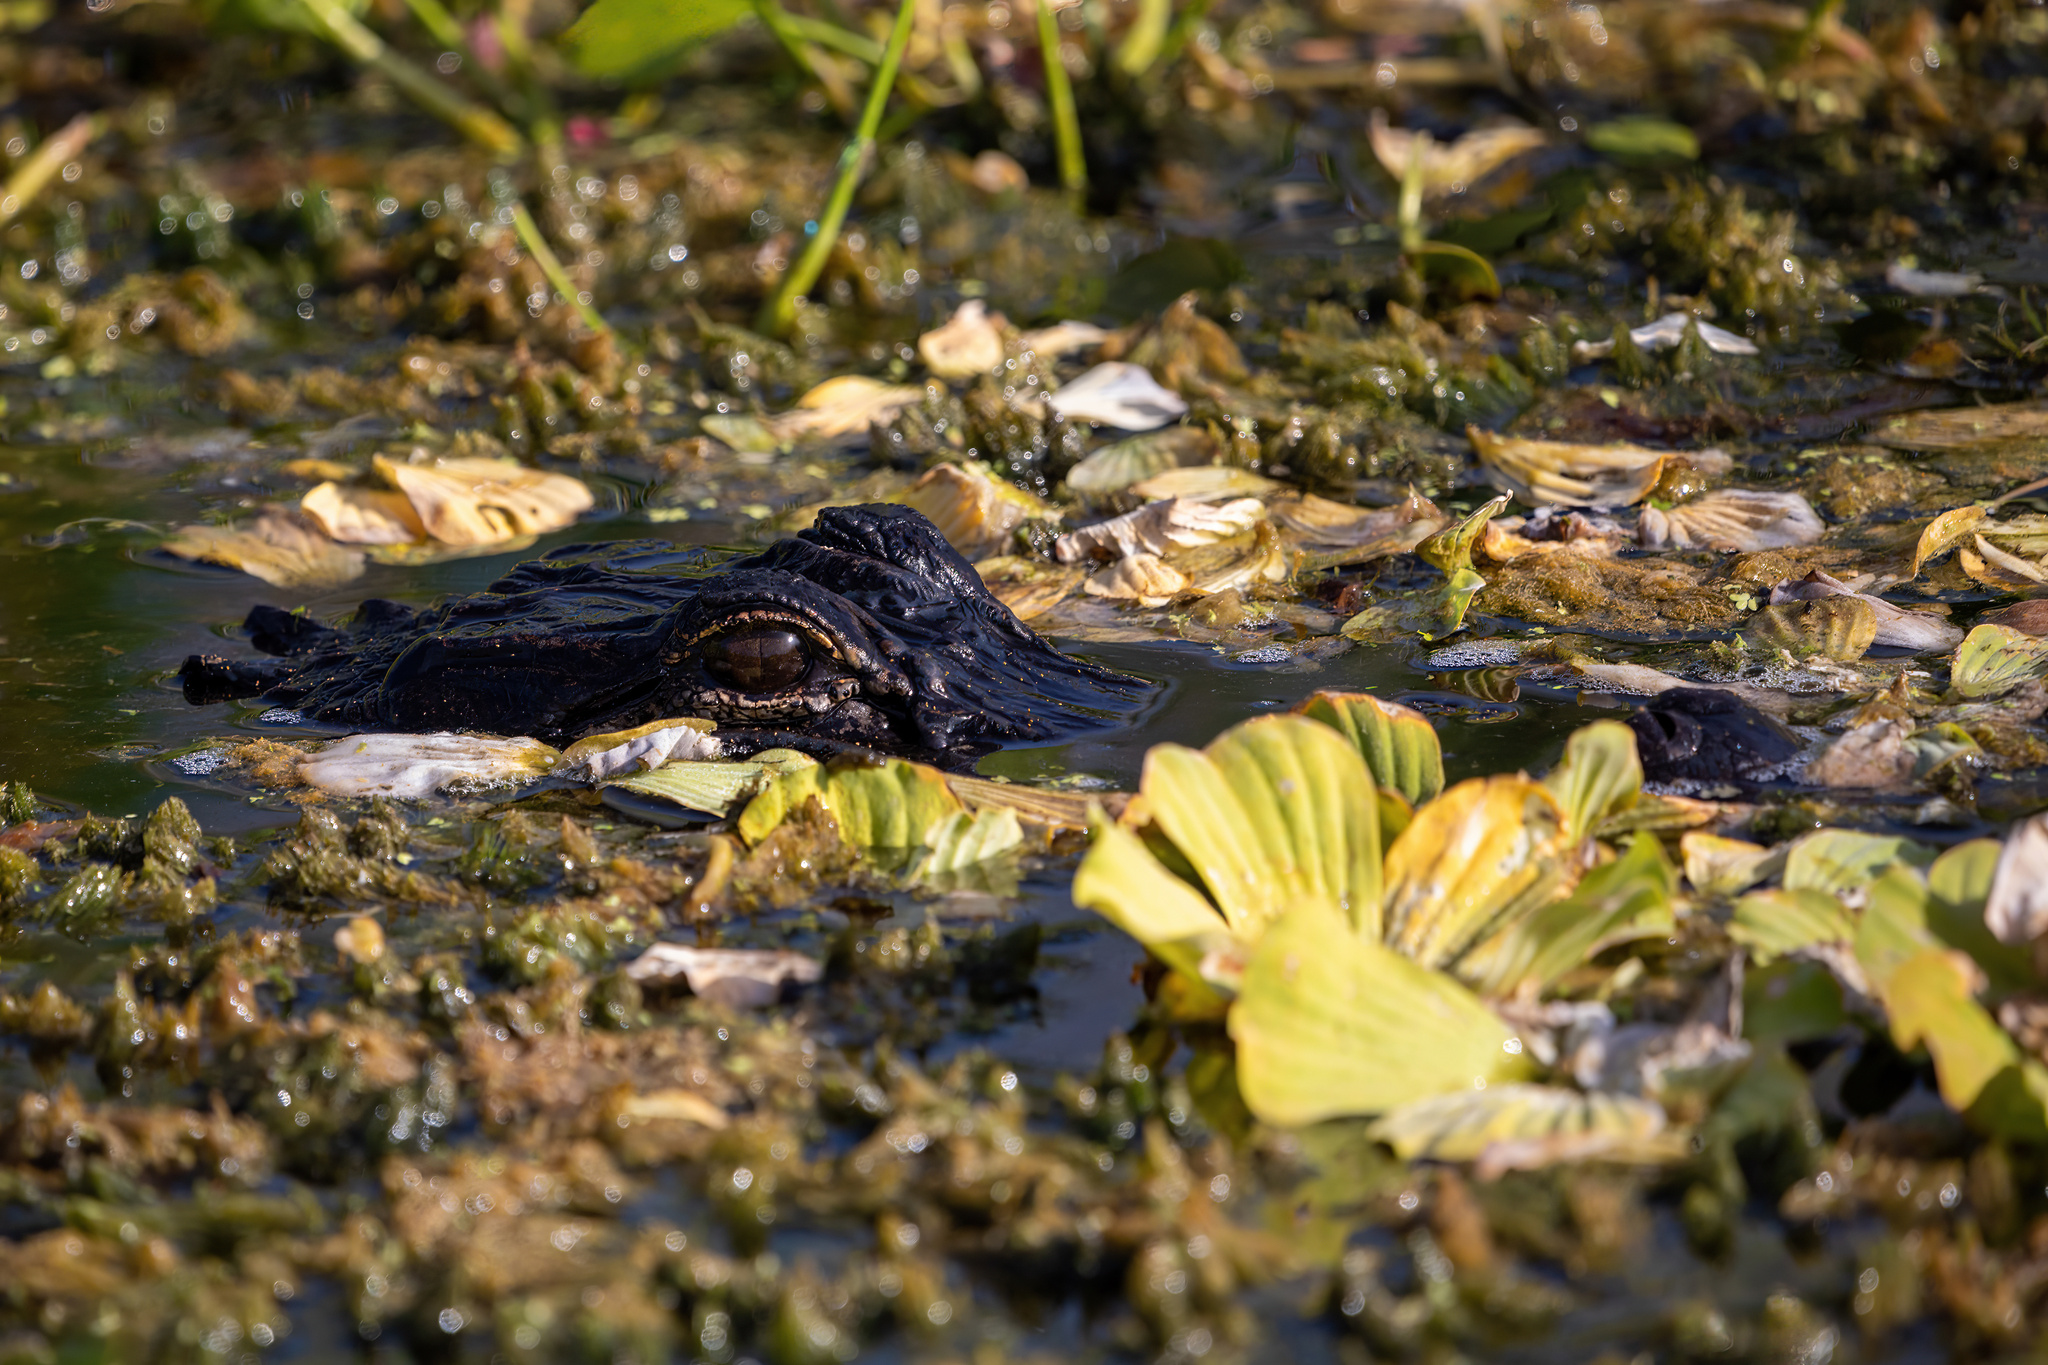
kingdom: Animalia
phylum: Chordata
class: Crocodylia
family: Alligatoridae
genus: Alligator
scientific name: Alligator mississippiensis
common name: American alligator
